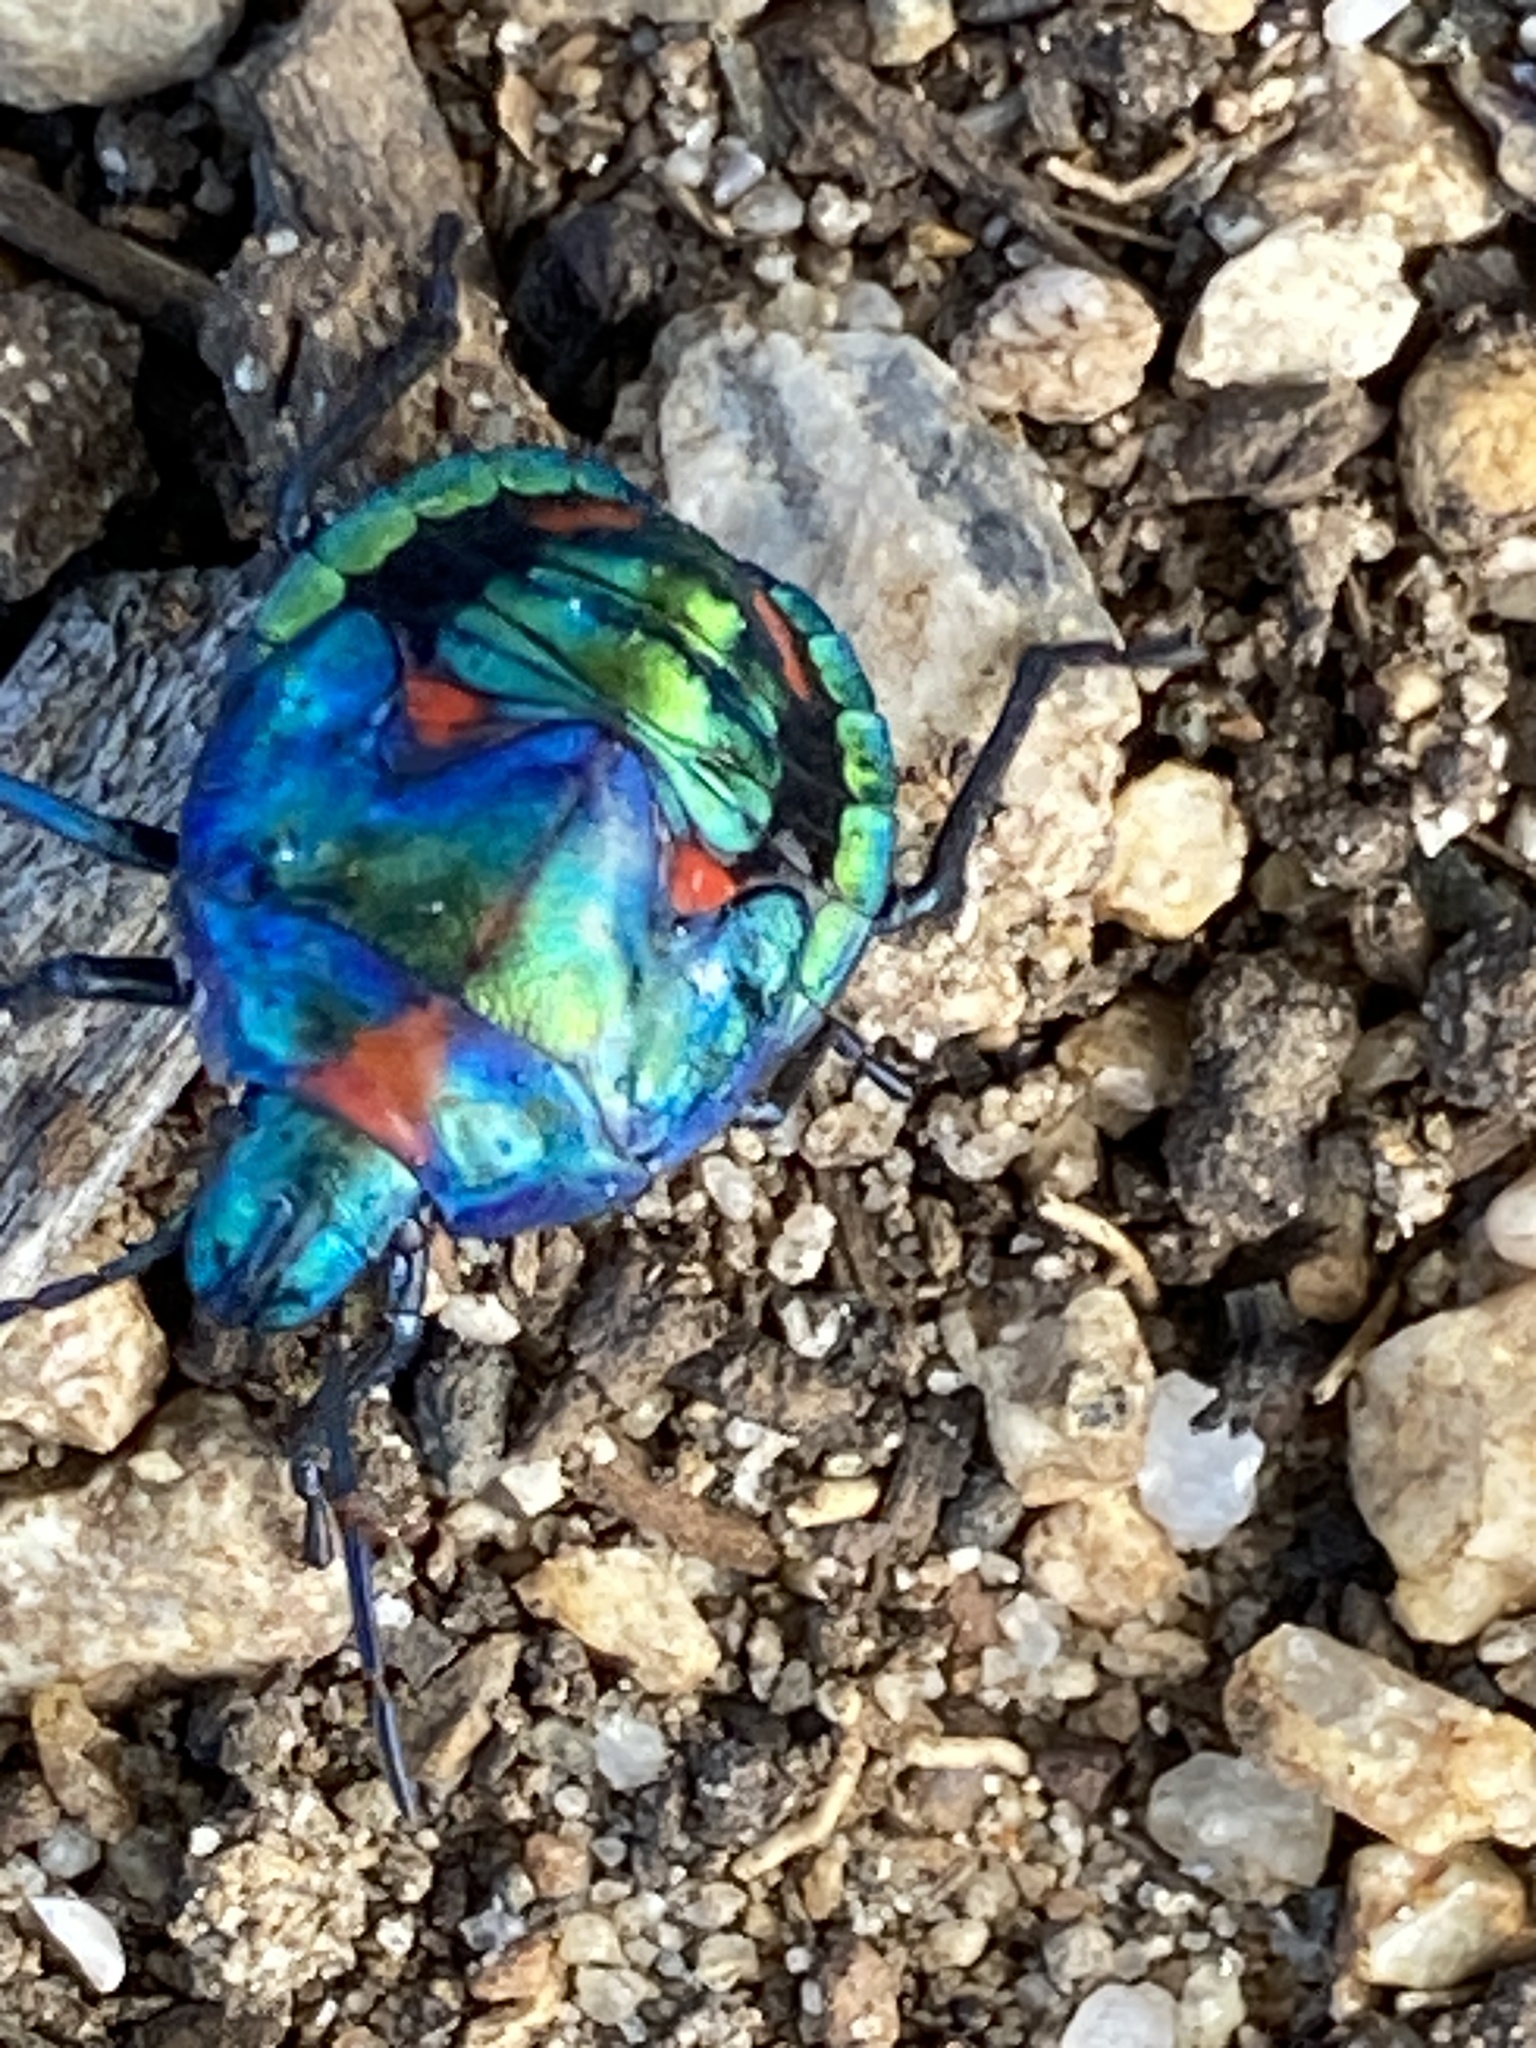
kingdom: Animalia
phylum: Arthropoda
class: Insecta
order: Hemiptera
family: Scutelleridae
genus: Tectocoris
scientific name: Tectocoris diophthalmus
